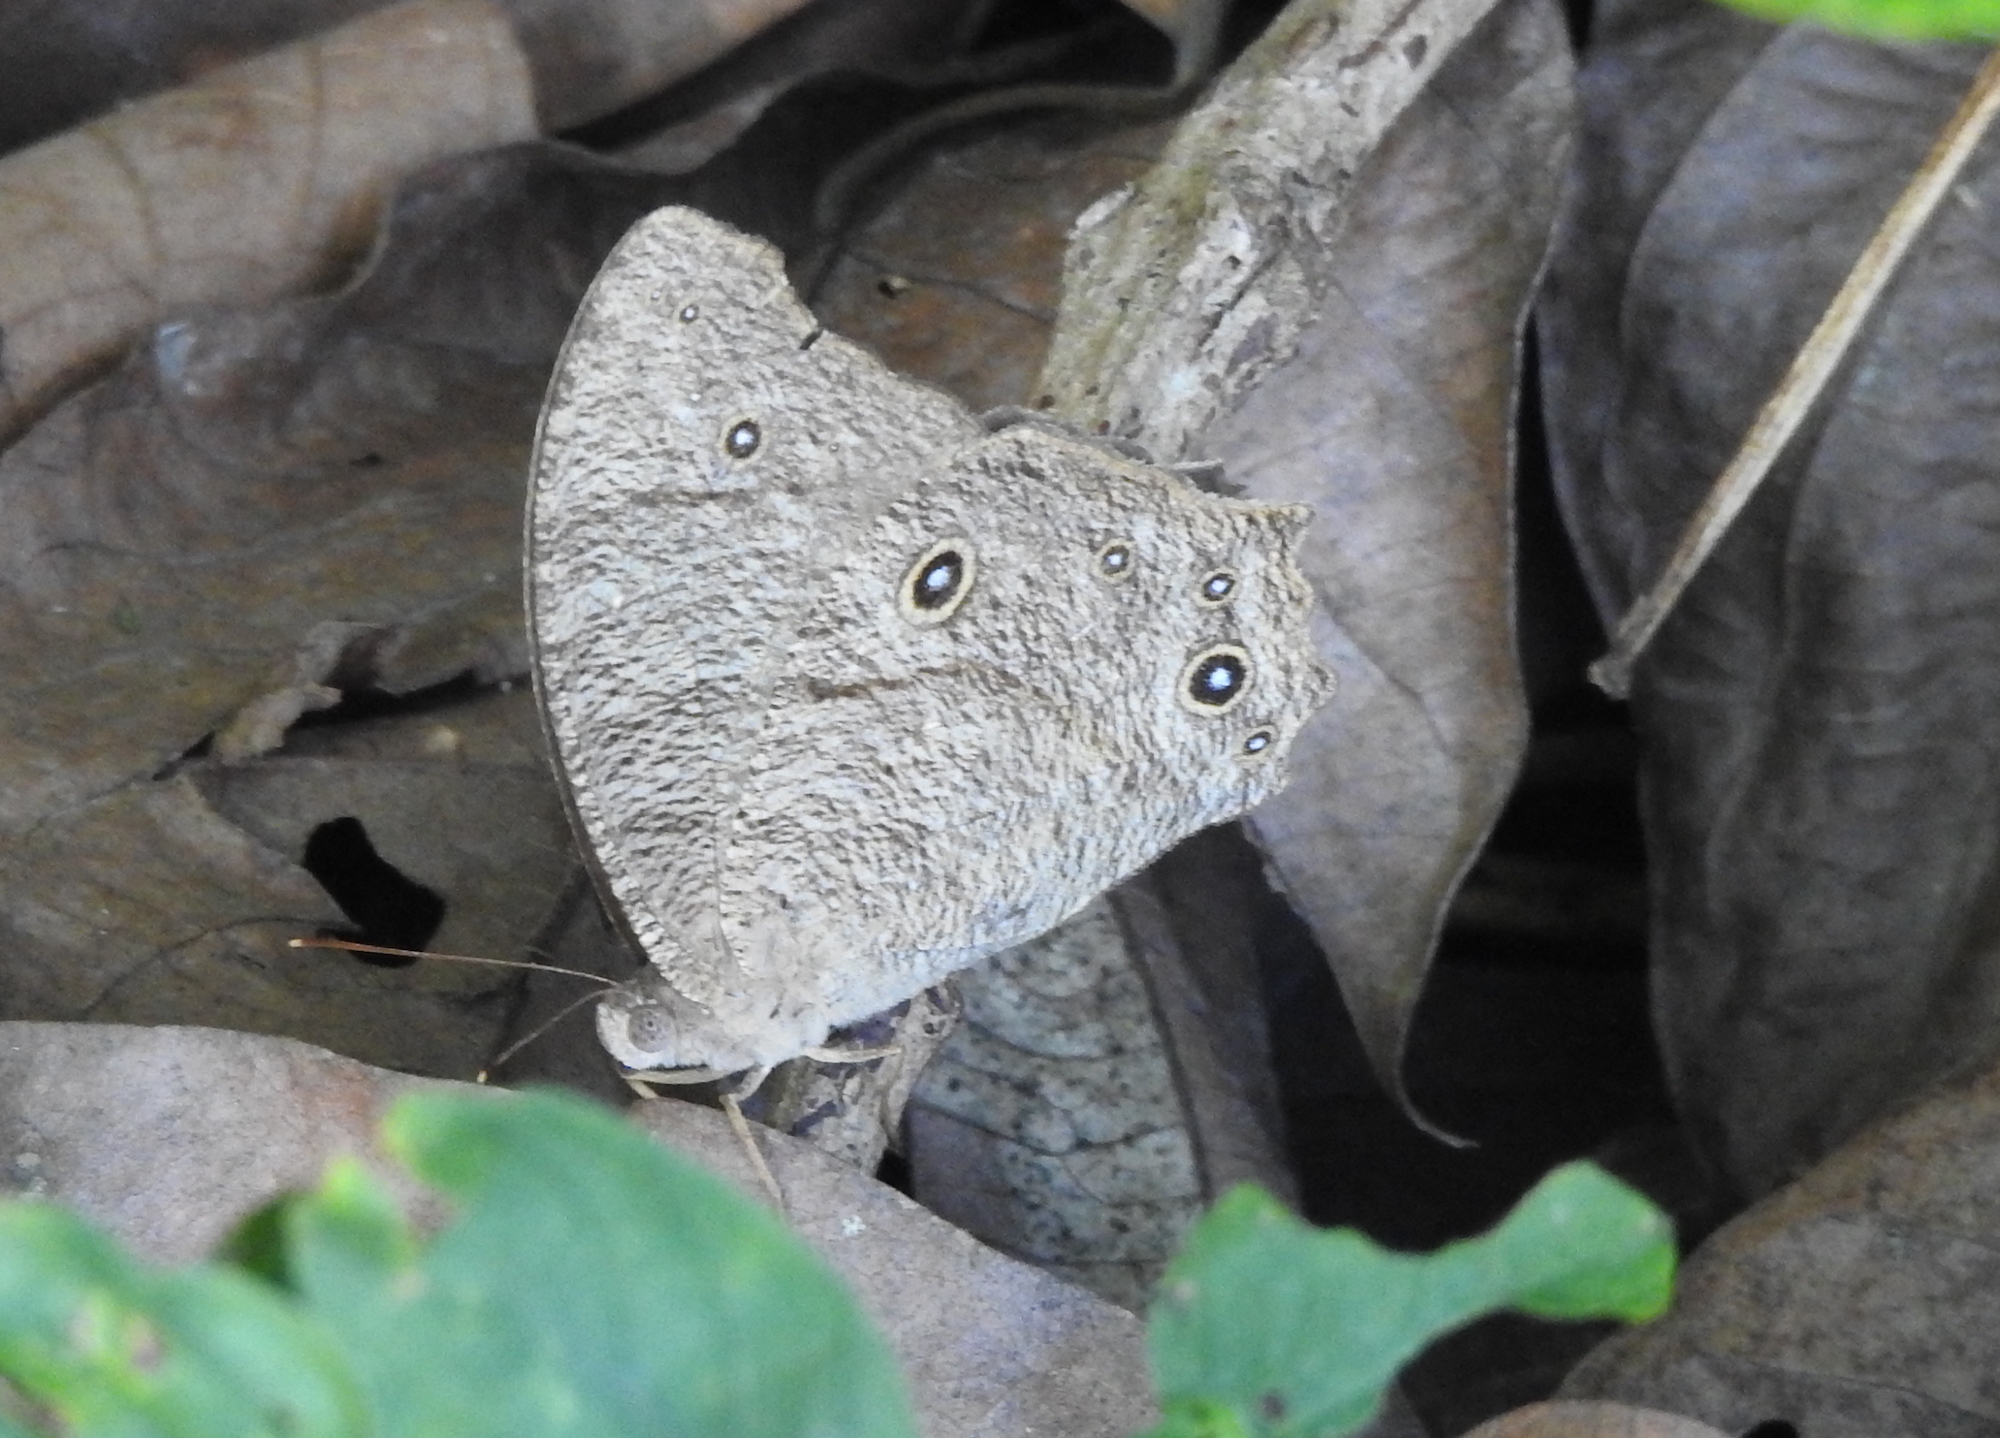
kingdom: Animalia
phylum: Arthropoda
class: Insecta
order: Lepidoptera
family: Nymphalidae
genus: Melanitis
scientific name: Melanitis leda
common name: Twilight brown
